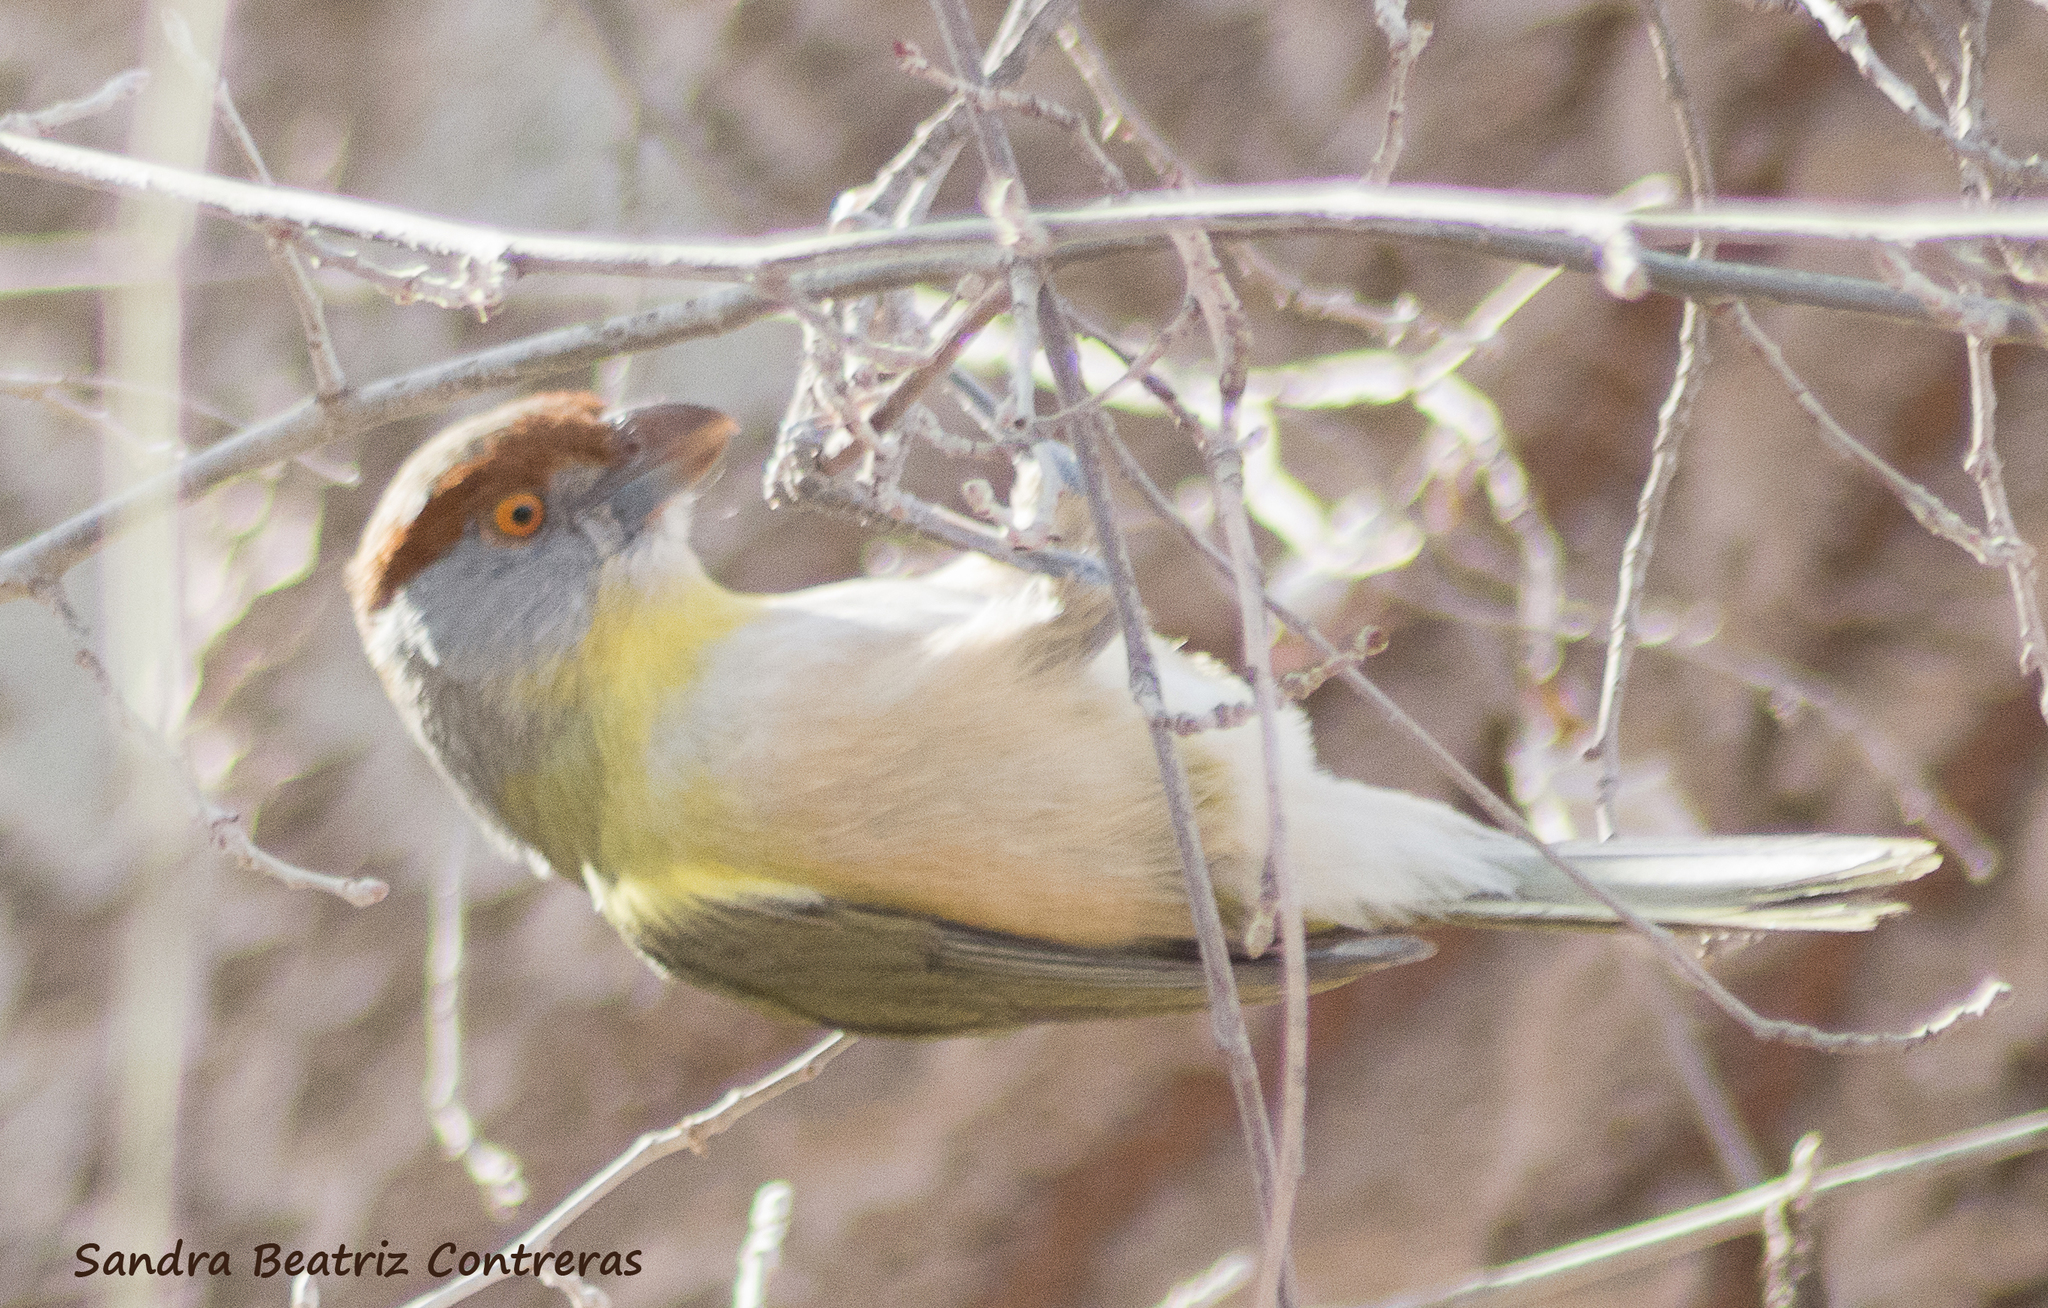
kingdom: Animalia
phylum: Chordata
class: Aves
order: Passeriformes
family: Vireonidae
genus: Cyclarhis
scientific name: Cyclarhis gujanensis
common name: Rufous-browed peppershrike
